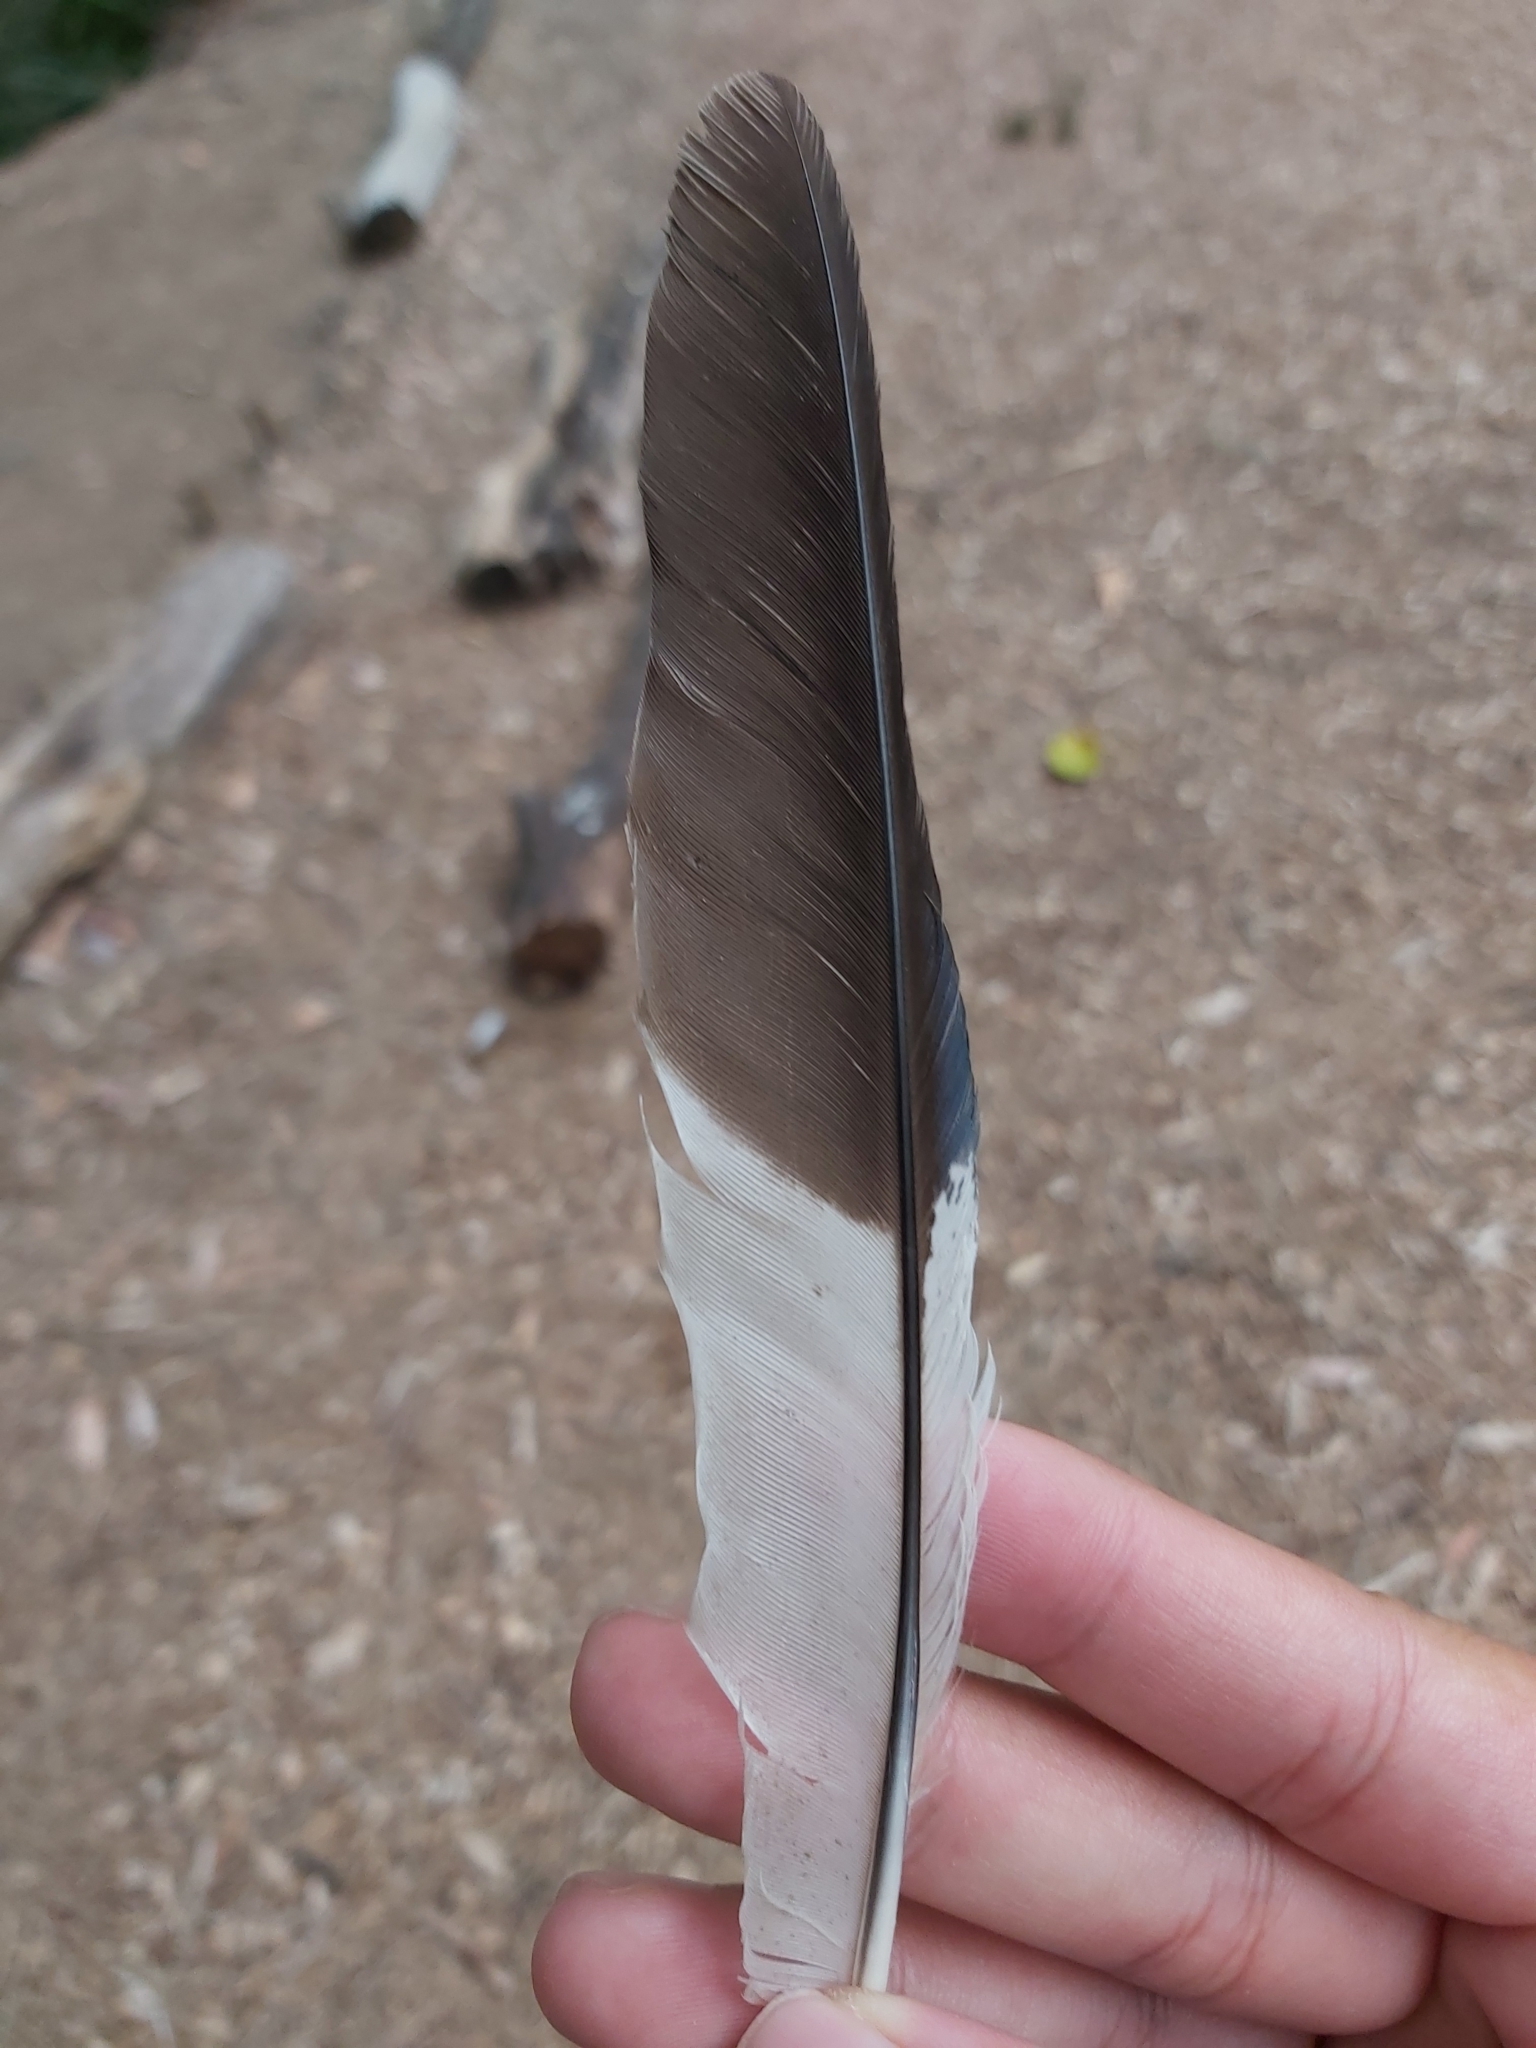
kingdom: Animalia
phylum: Chordata
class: Aves
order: Coraciiformes
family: Alcedinidae
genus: Dacelo
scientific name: Dacelo novaeguineae
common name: Laughing kookaburra
